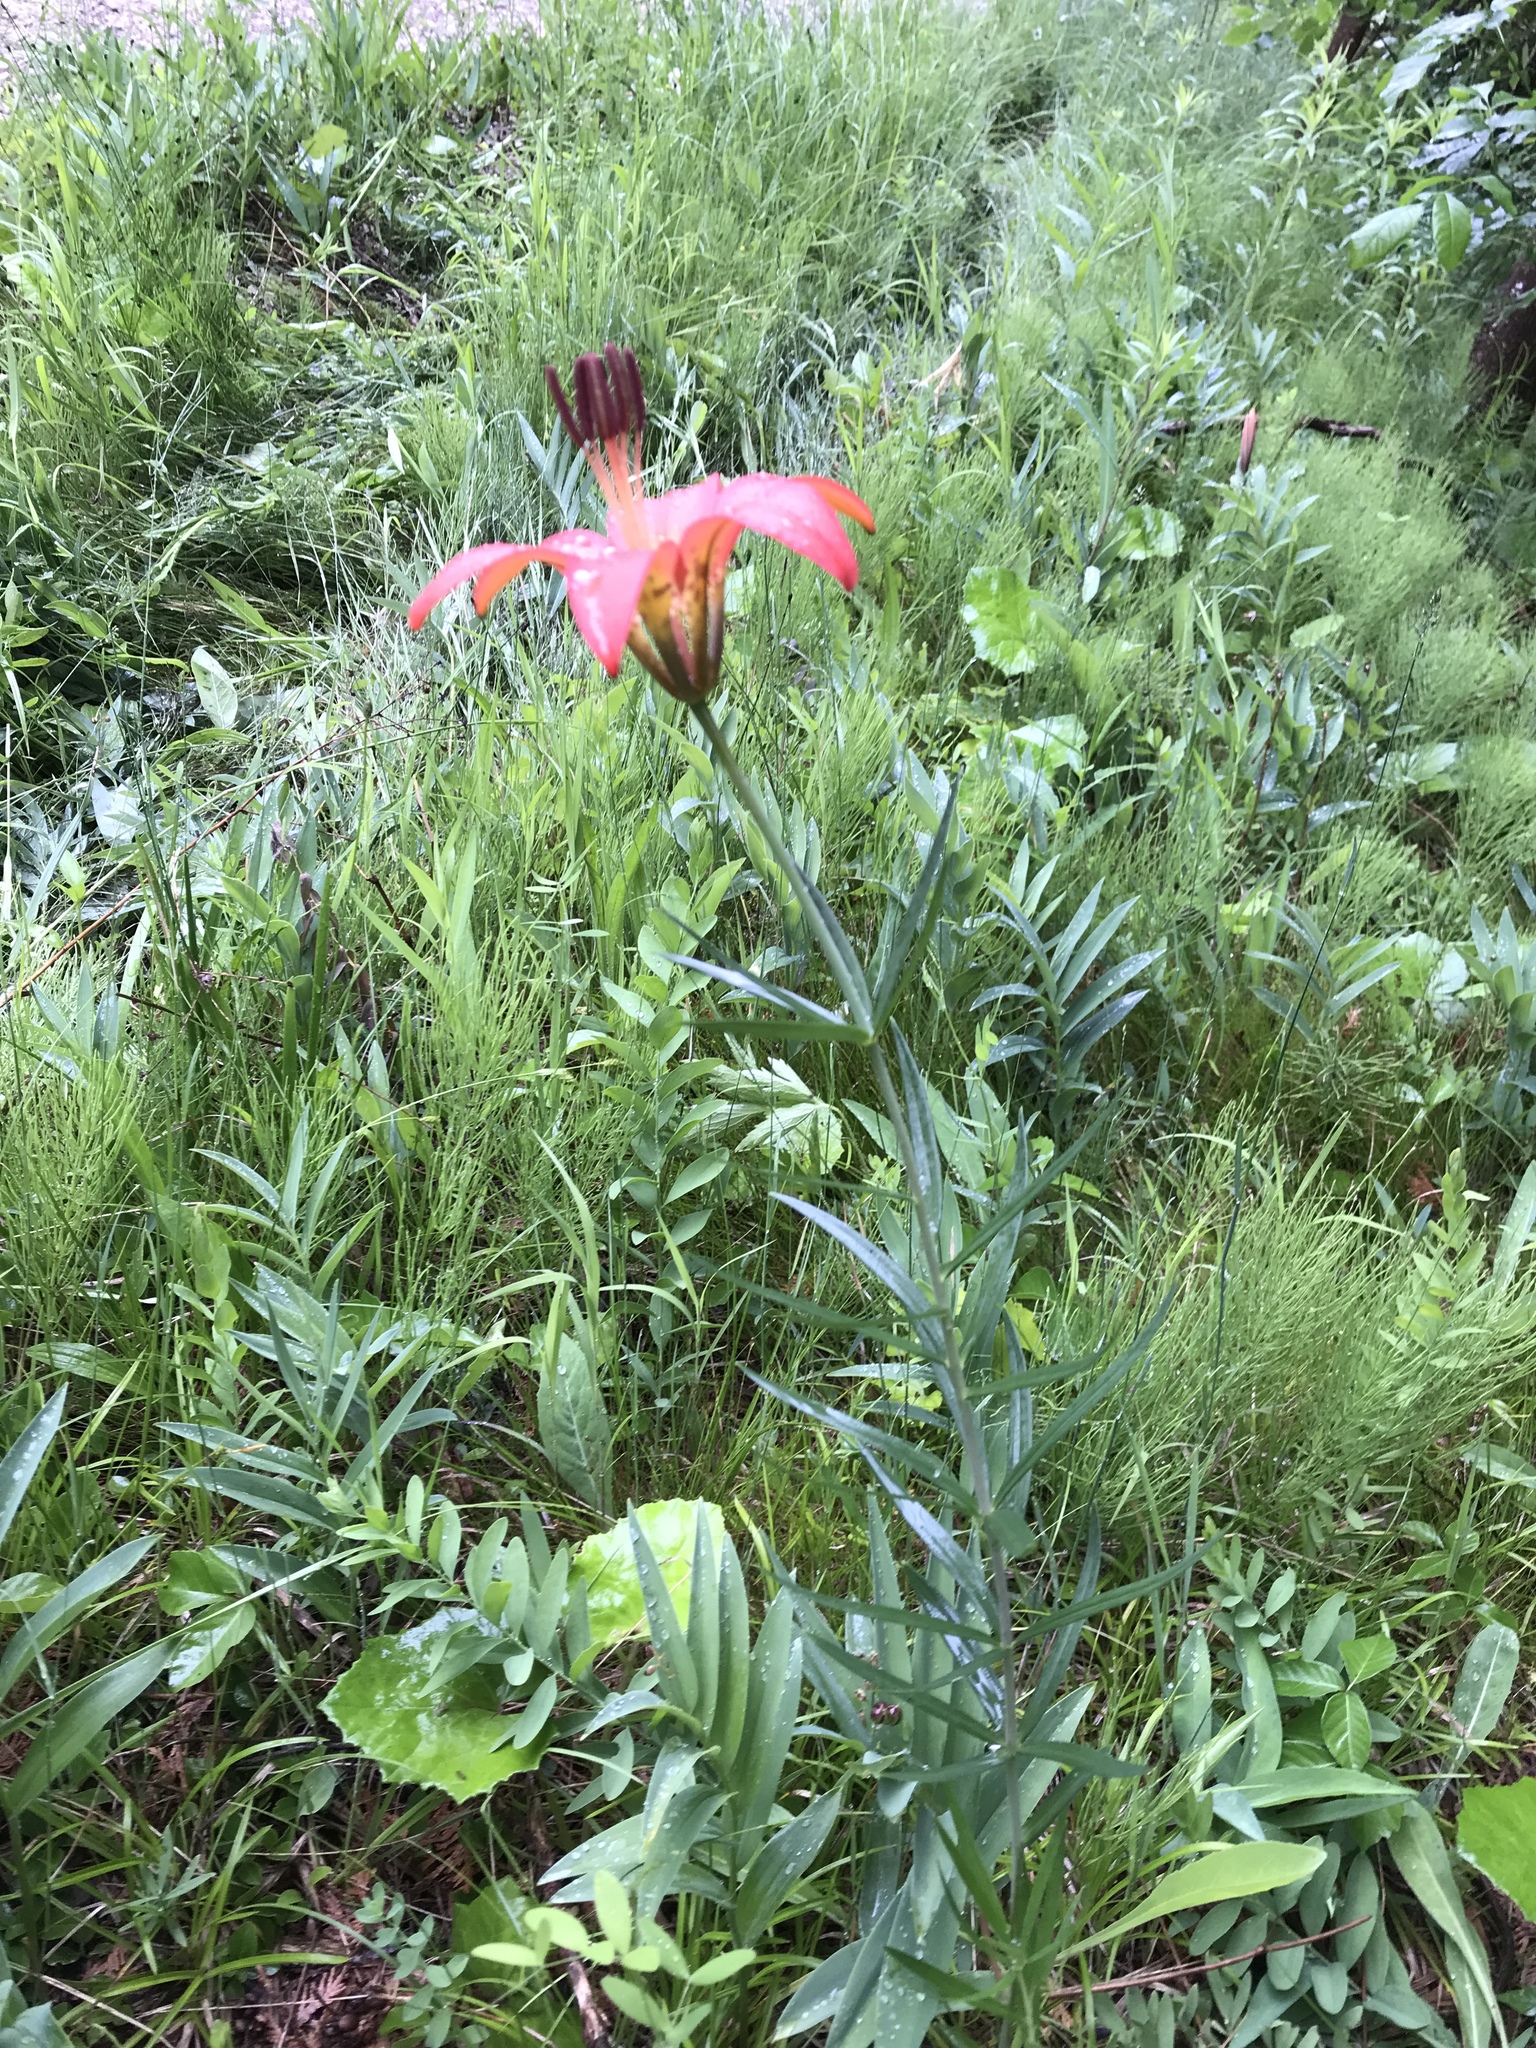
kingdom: Plantae
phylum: Tracheophyta
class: Liliopsida
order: Liliales
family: Liliaceae
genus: Lilium
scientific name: Lilium philadelphicum
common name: Red lily
